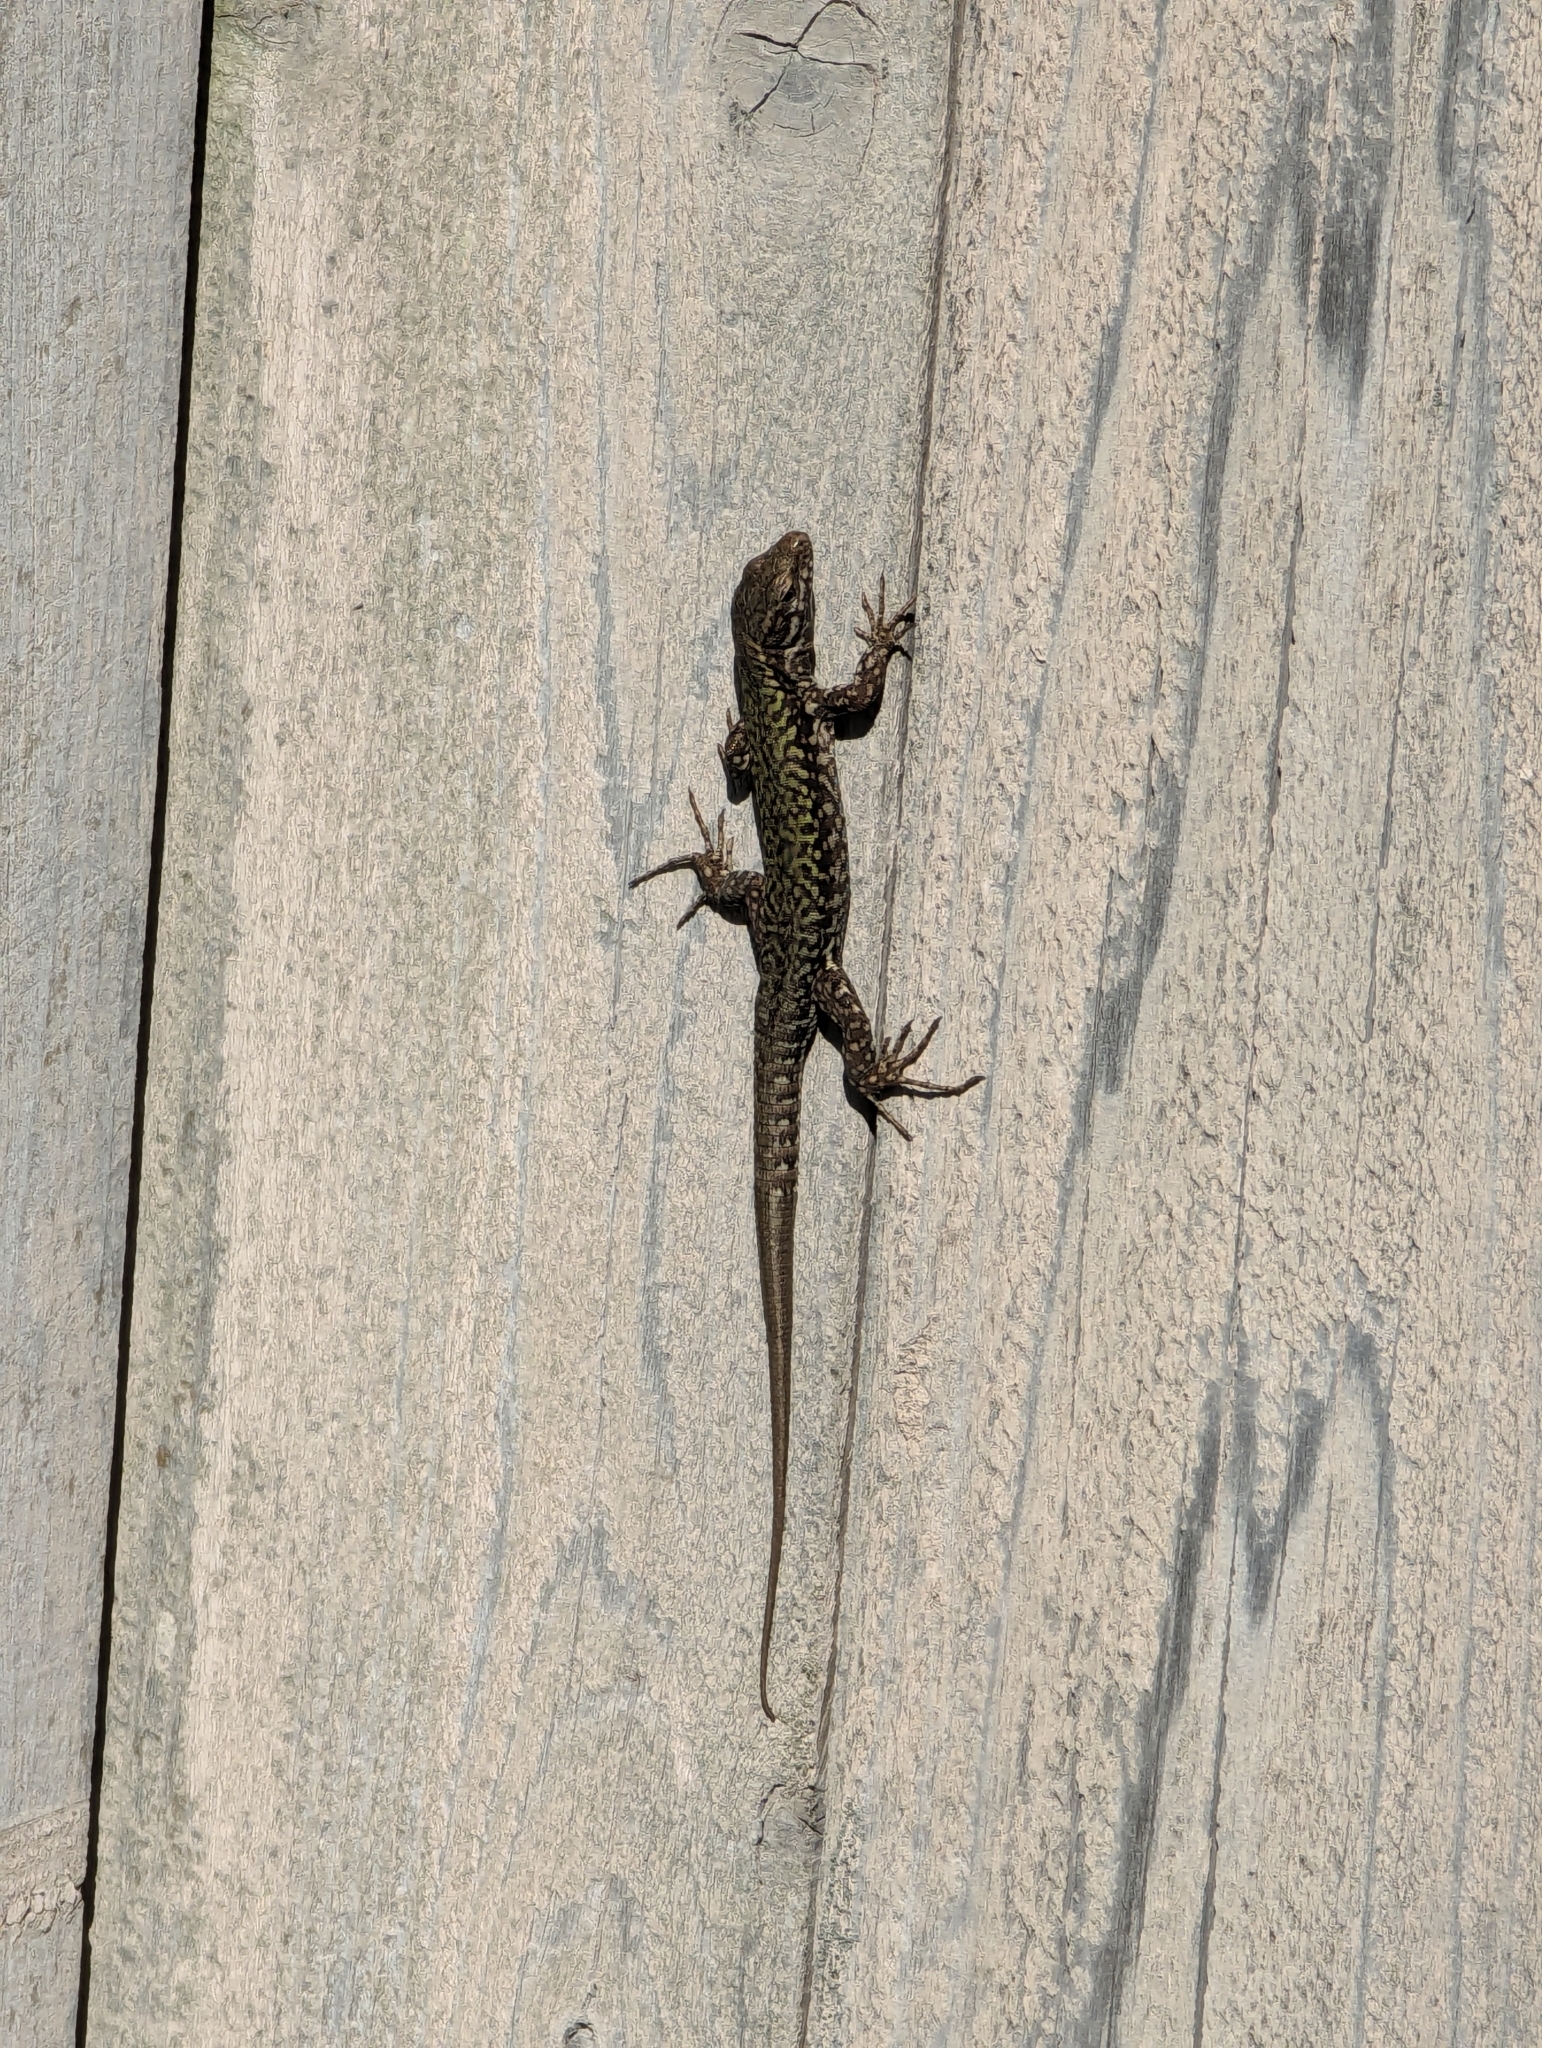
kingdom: Animalia
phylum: Chordata
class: Squamata
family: Lacertidae
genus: Podarcis
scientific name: Podarcis muralis
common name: Common wall lizard
